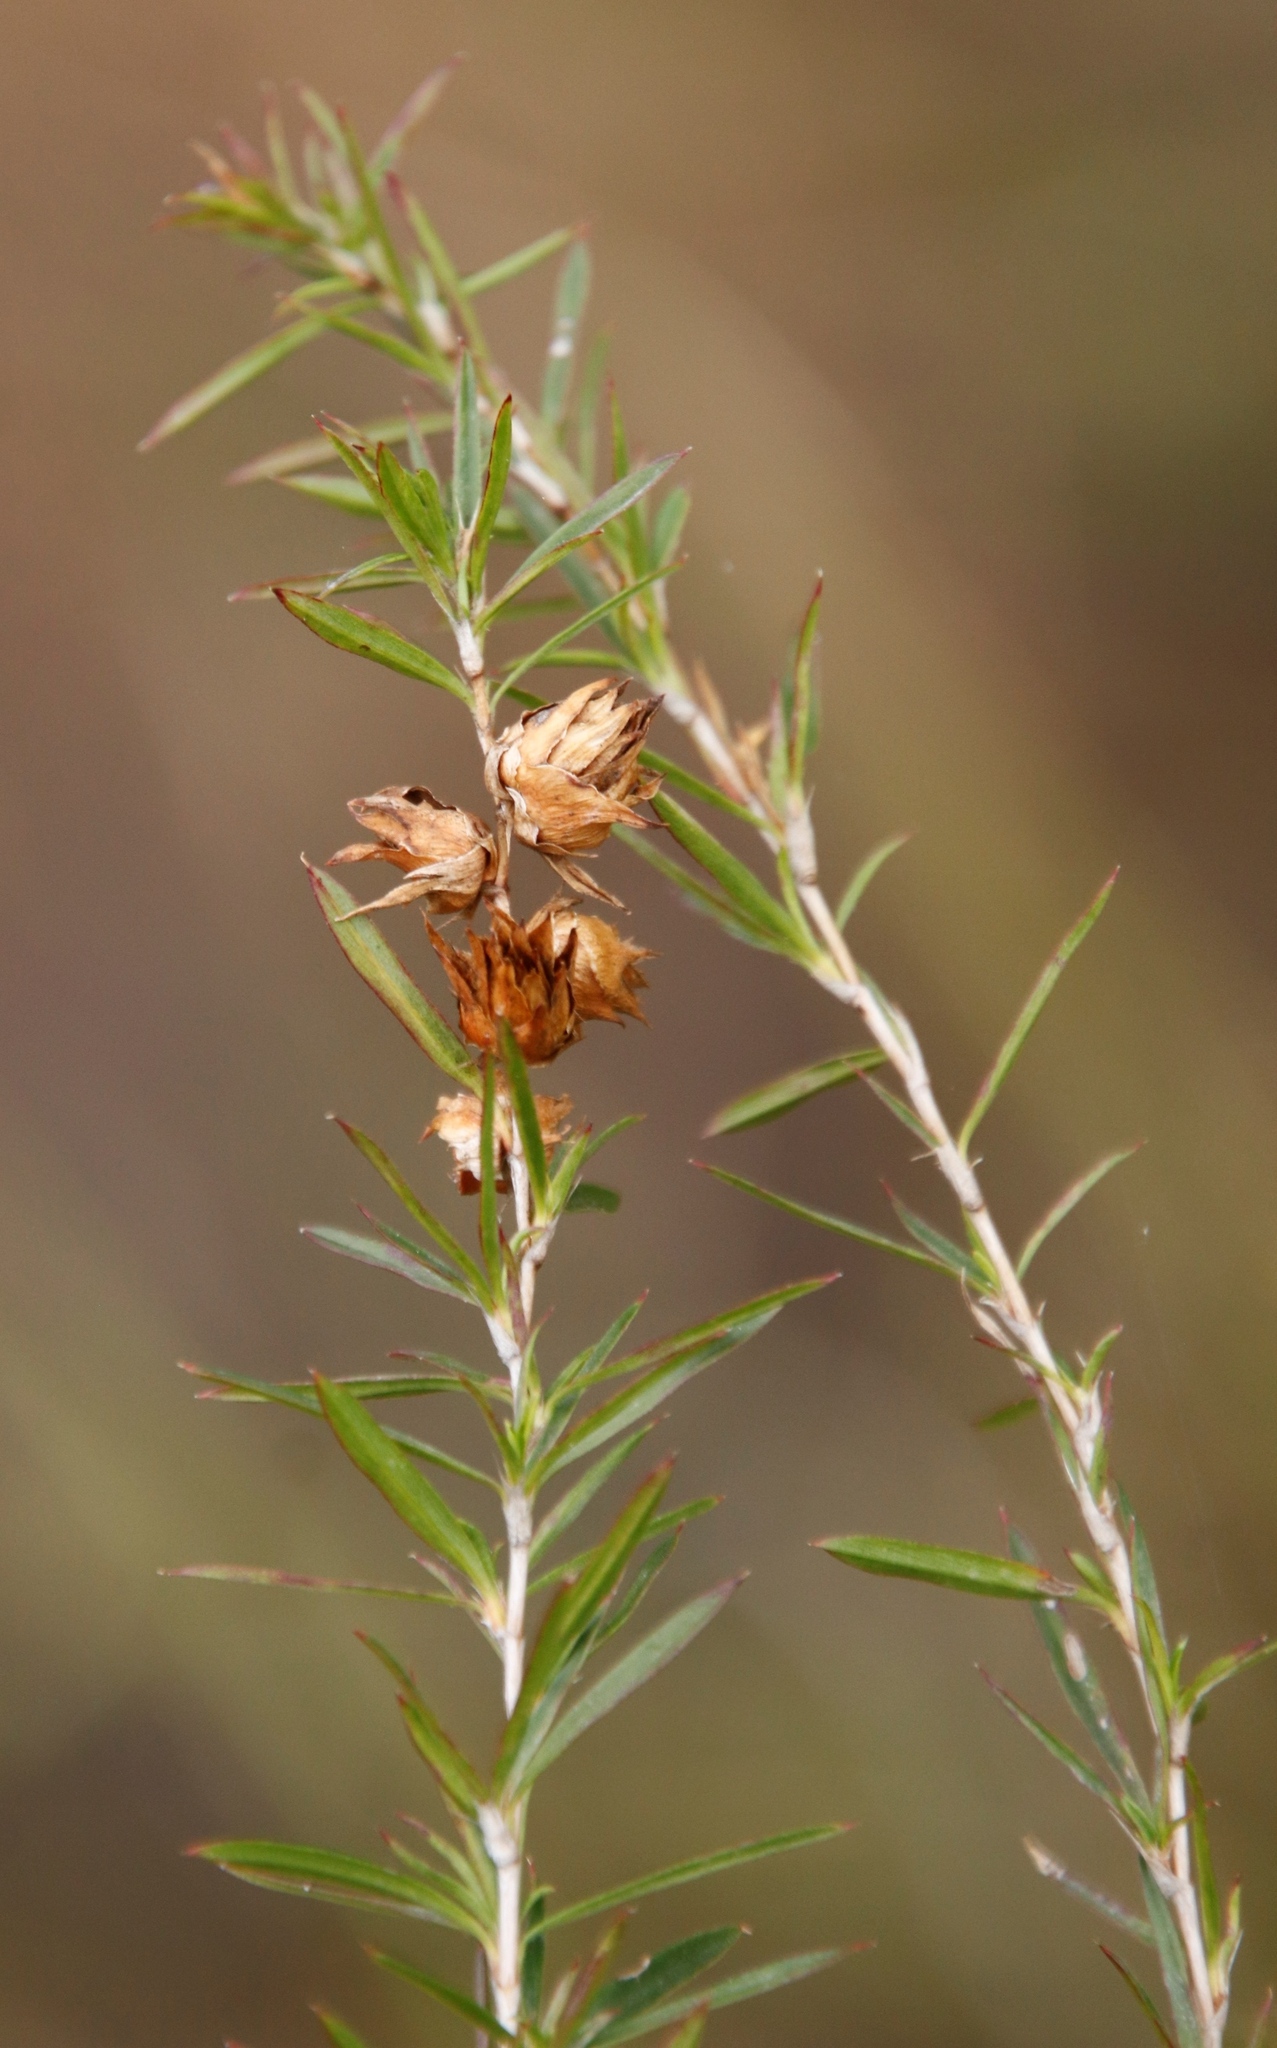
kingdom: Plantae
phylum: Tracheophyta
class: Magnoliopsida
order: Rosales
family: Rosaceae
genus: Cliffortia
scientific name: Cliffortia strobilifera
